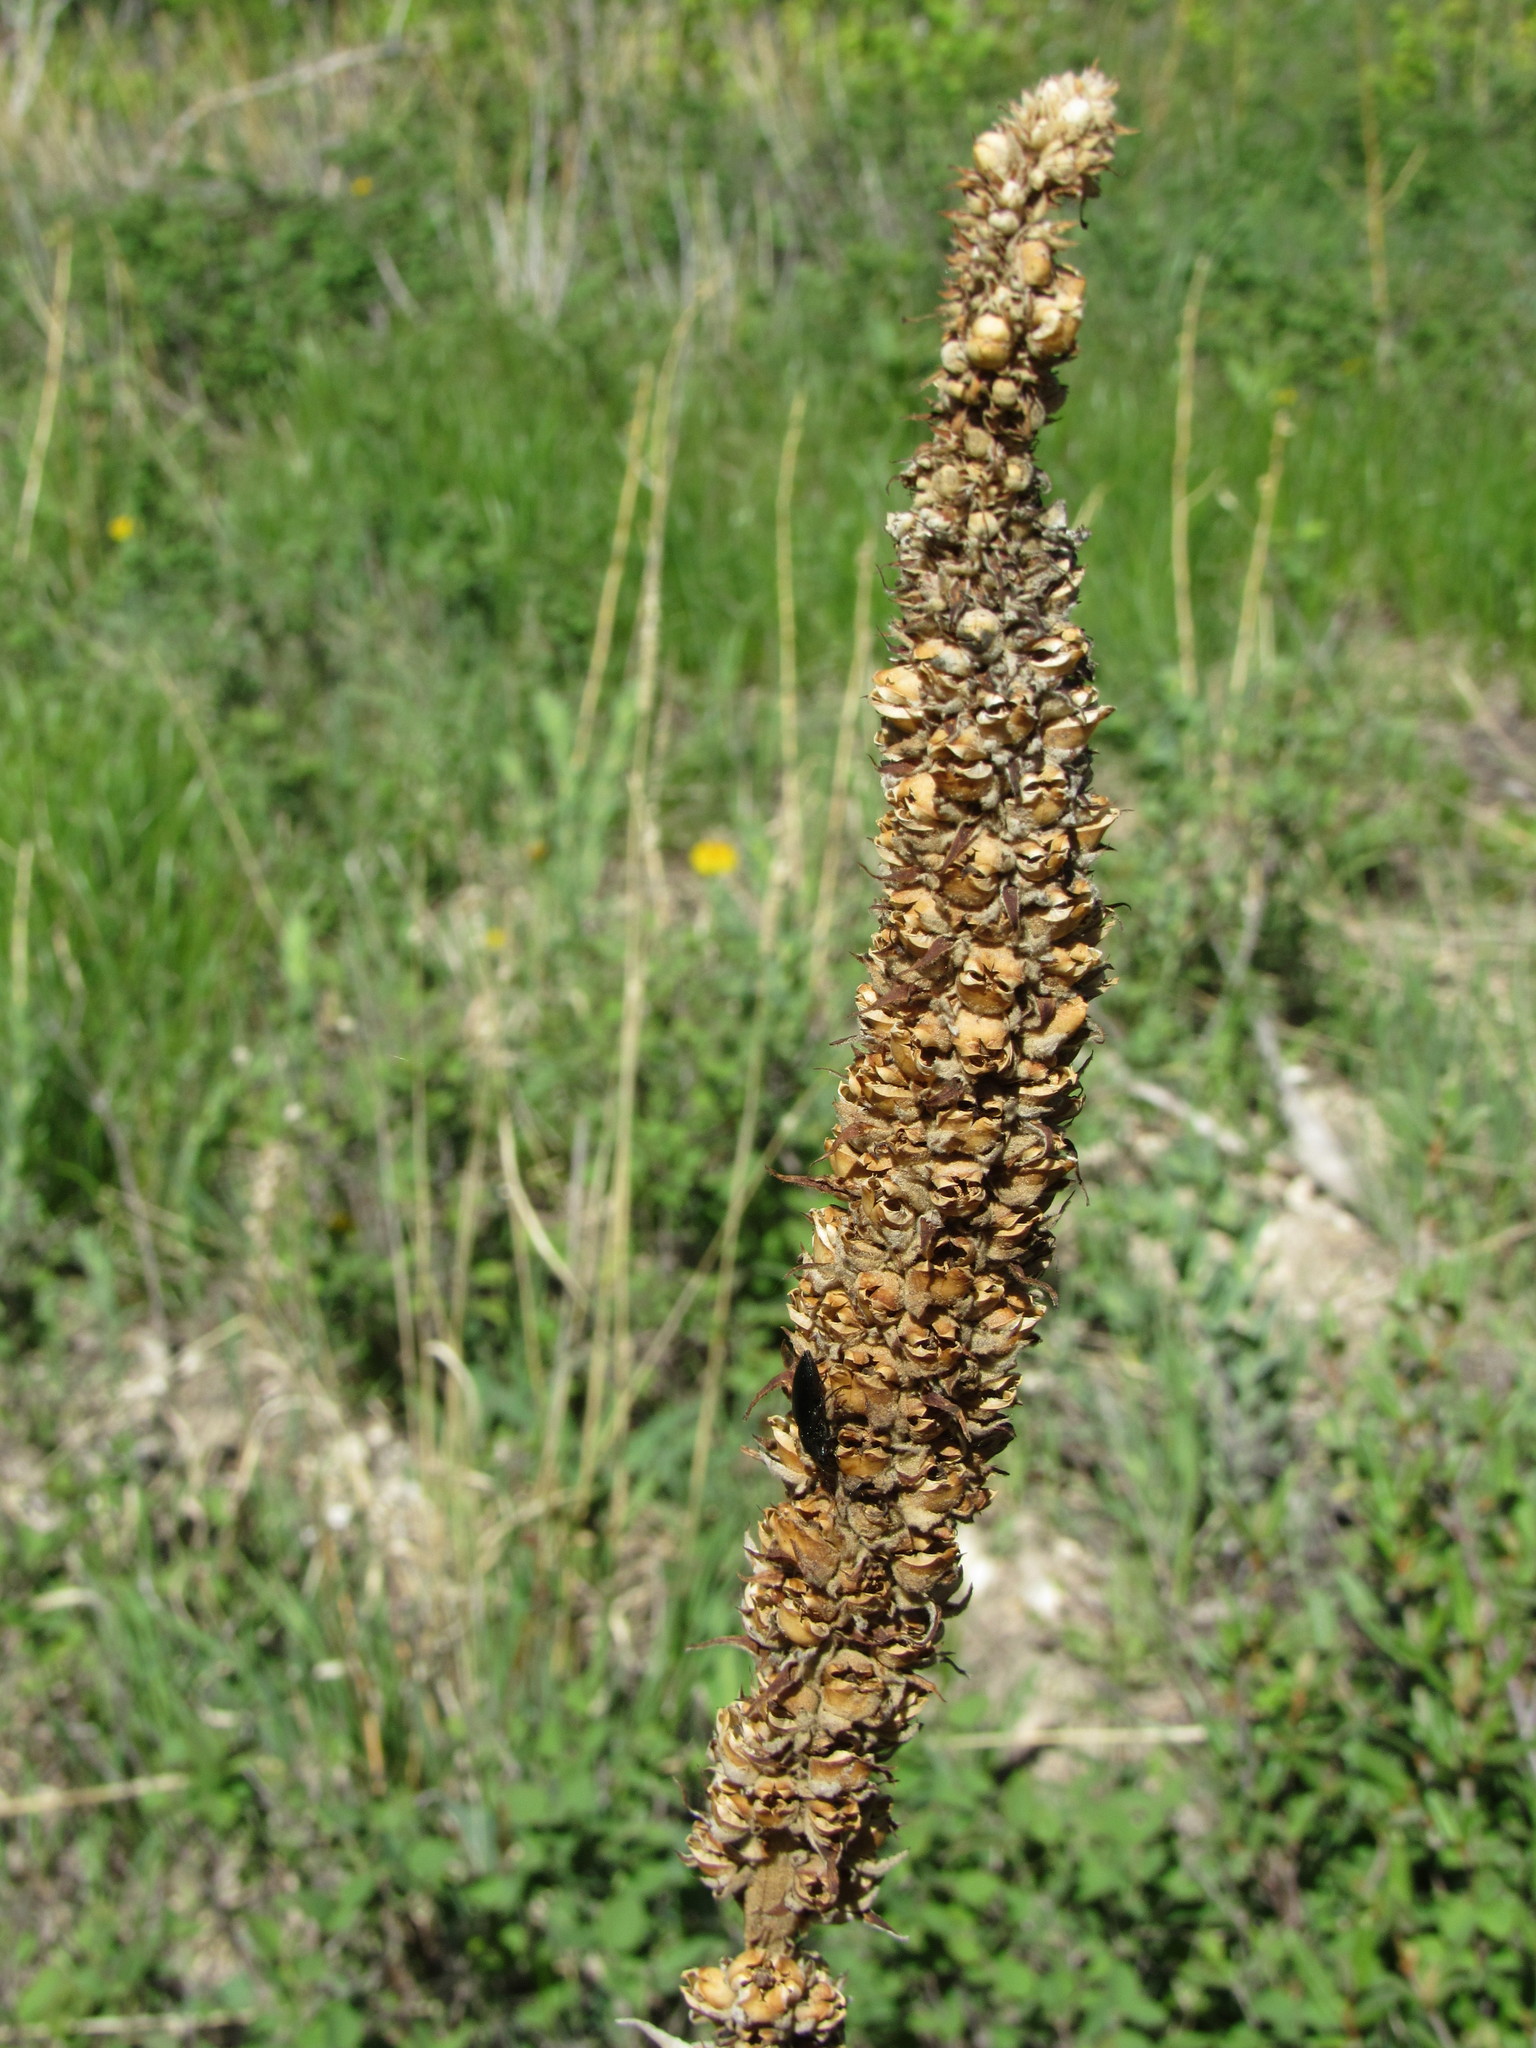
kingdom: Plantae
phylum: Tracheophyta
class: Magnoliopsida
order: Lamiales
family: Scrophulariaceae
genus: Verbascum
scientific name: Verbascum thapsus
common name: Common mullein
